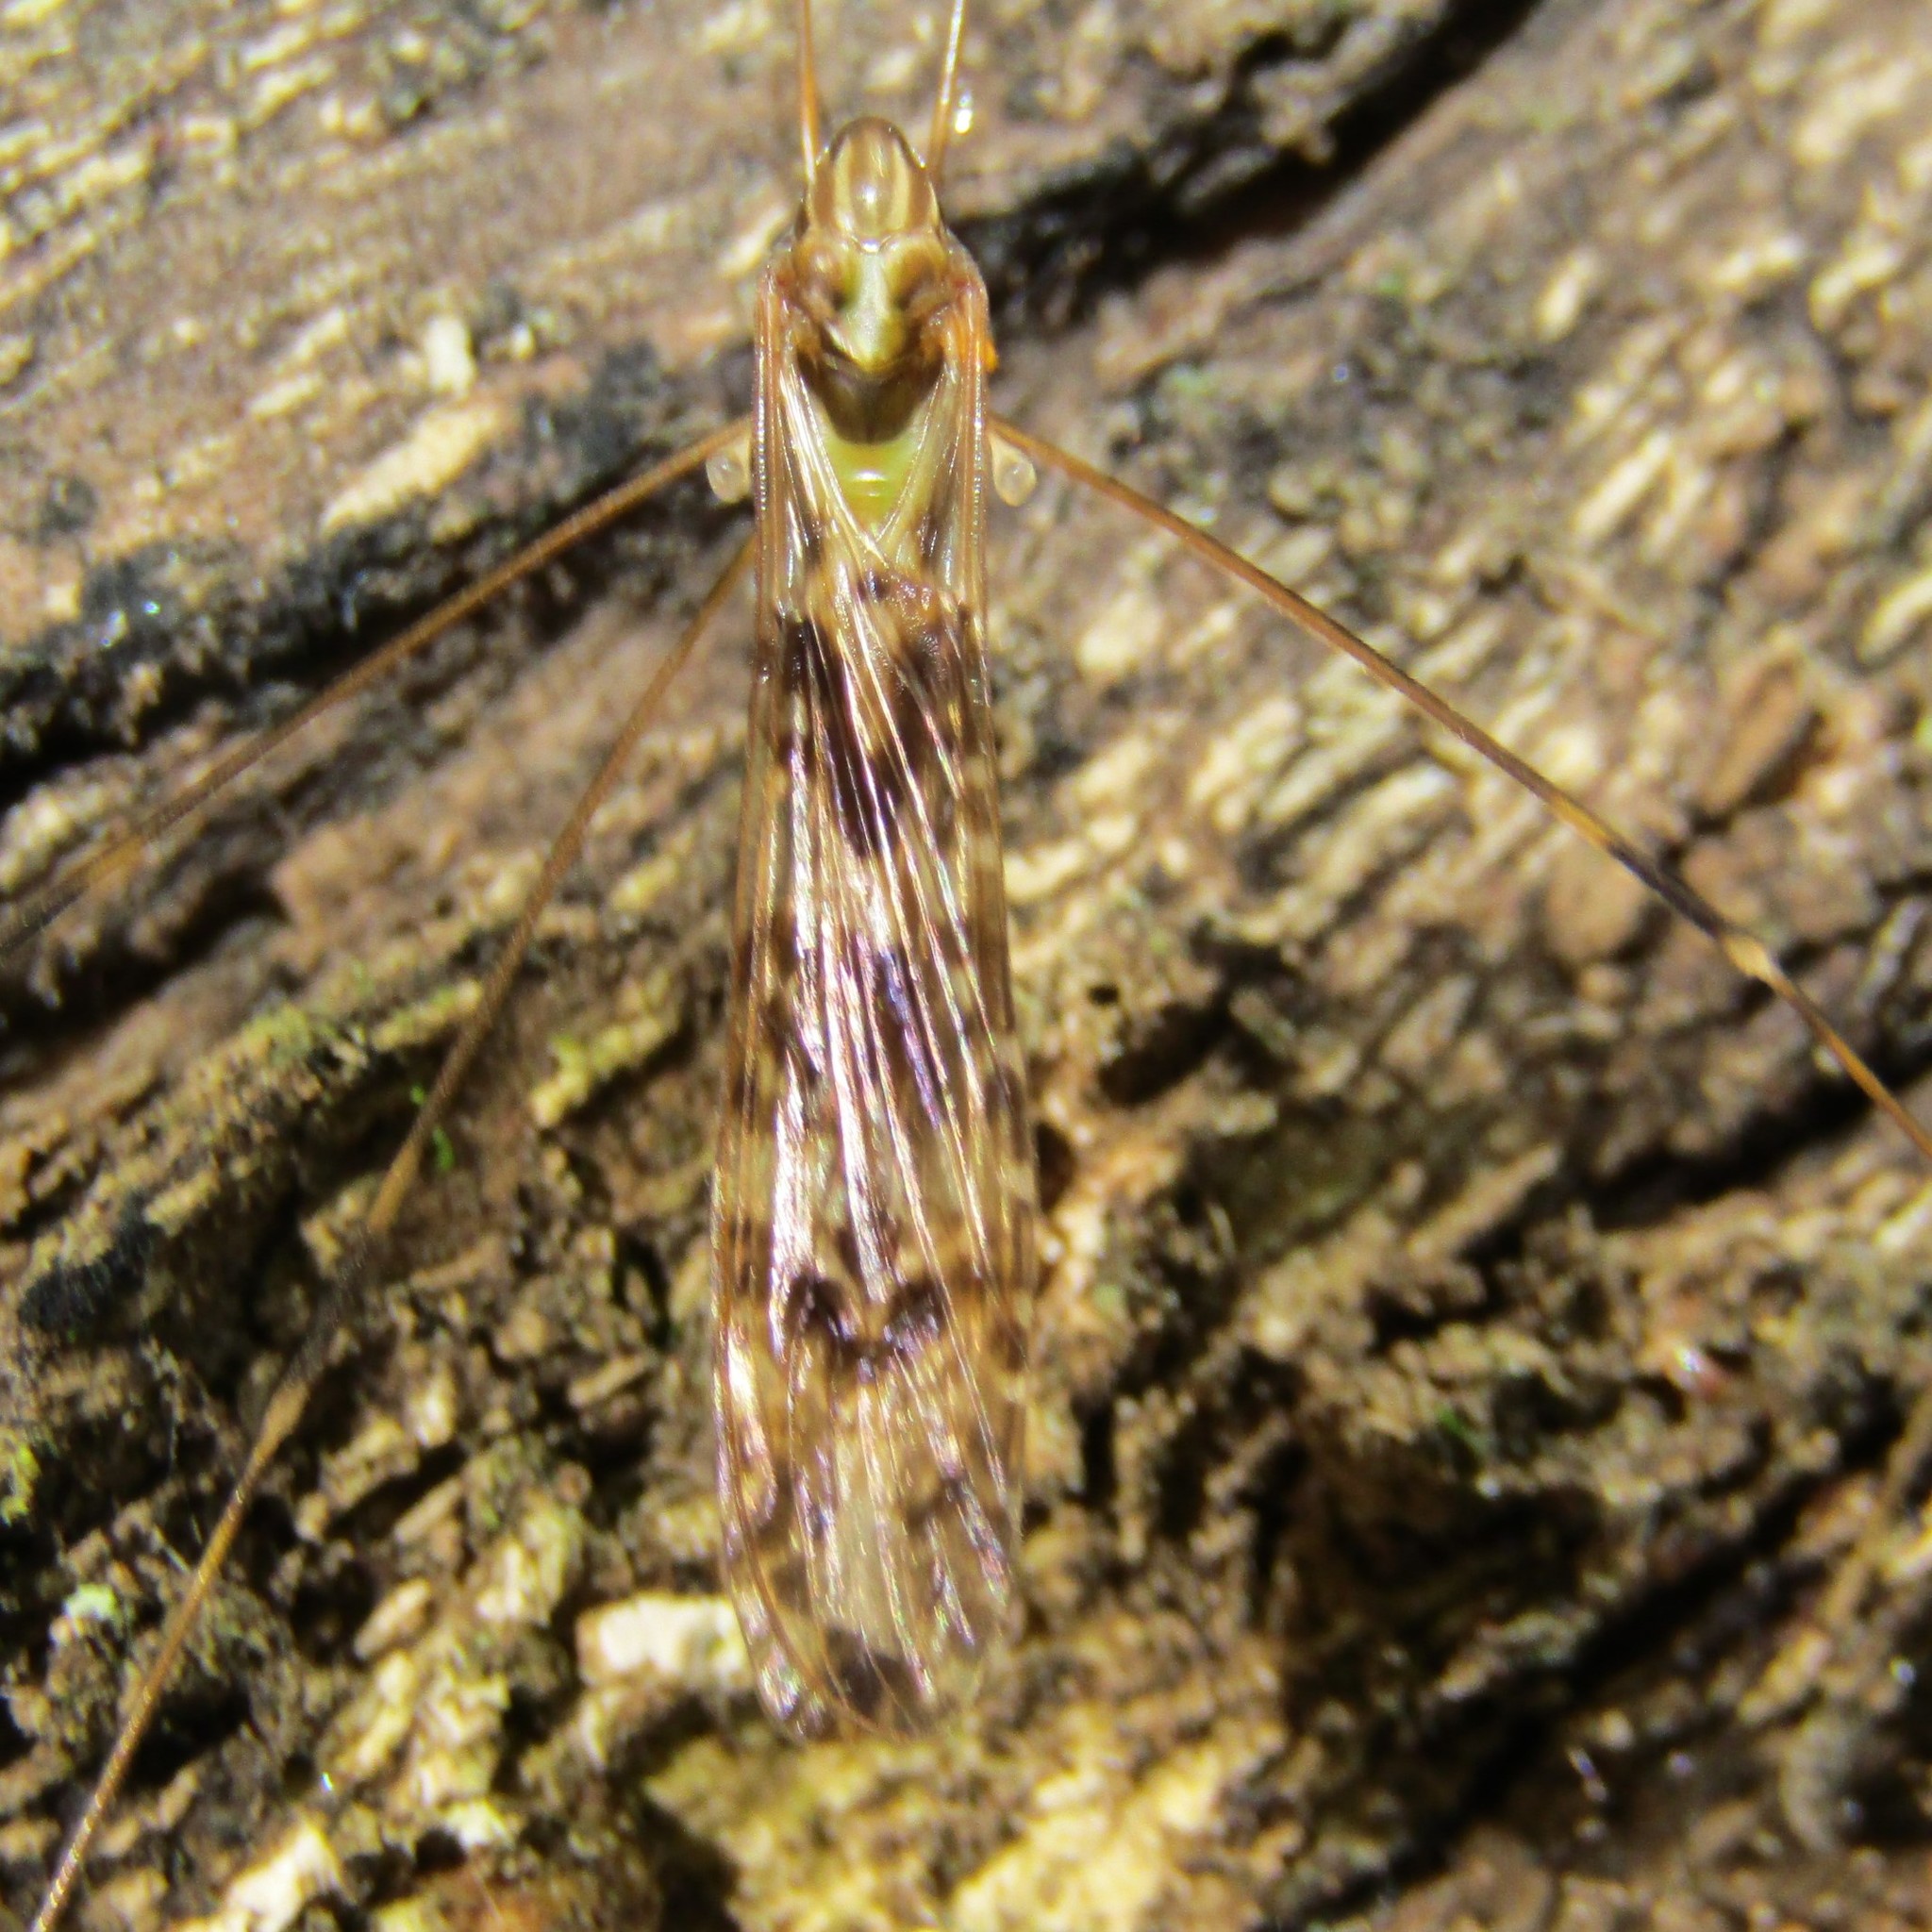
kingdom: Animalia
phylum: Arthropoda
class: Insecta
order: Diptera
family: Limoniidae
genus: Discobola
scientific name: Discobola dohrni
